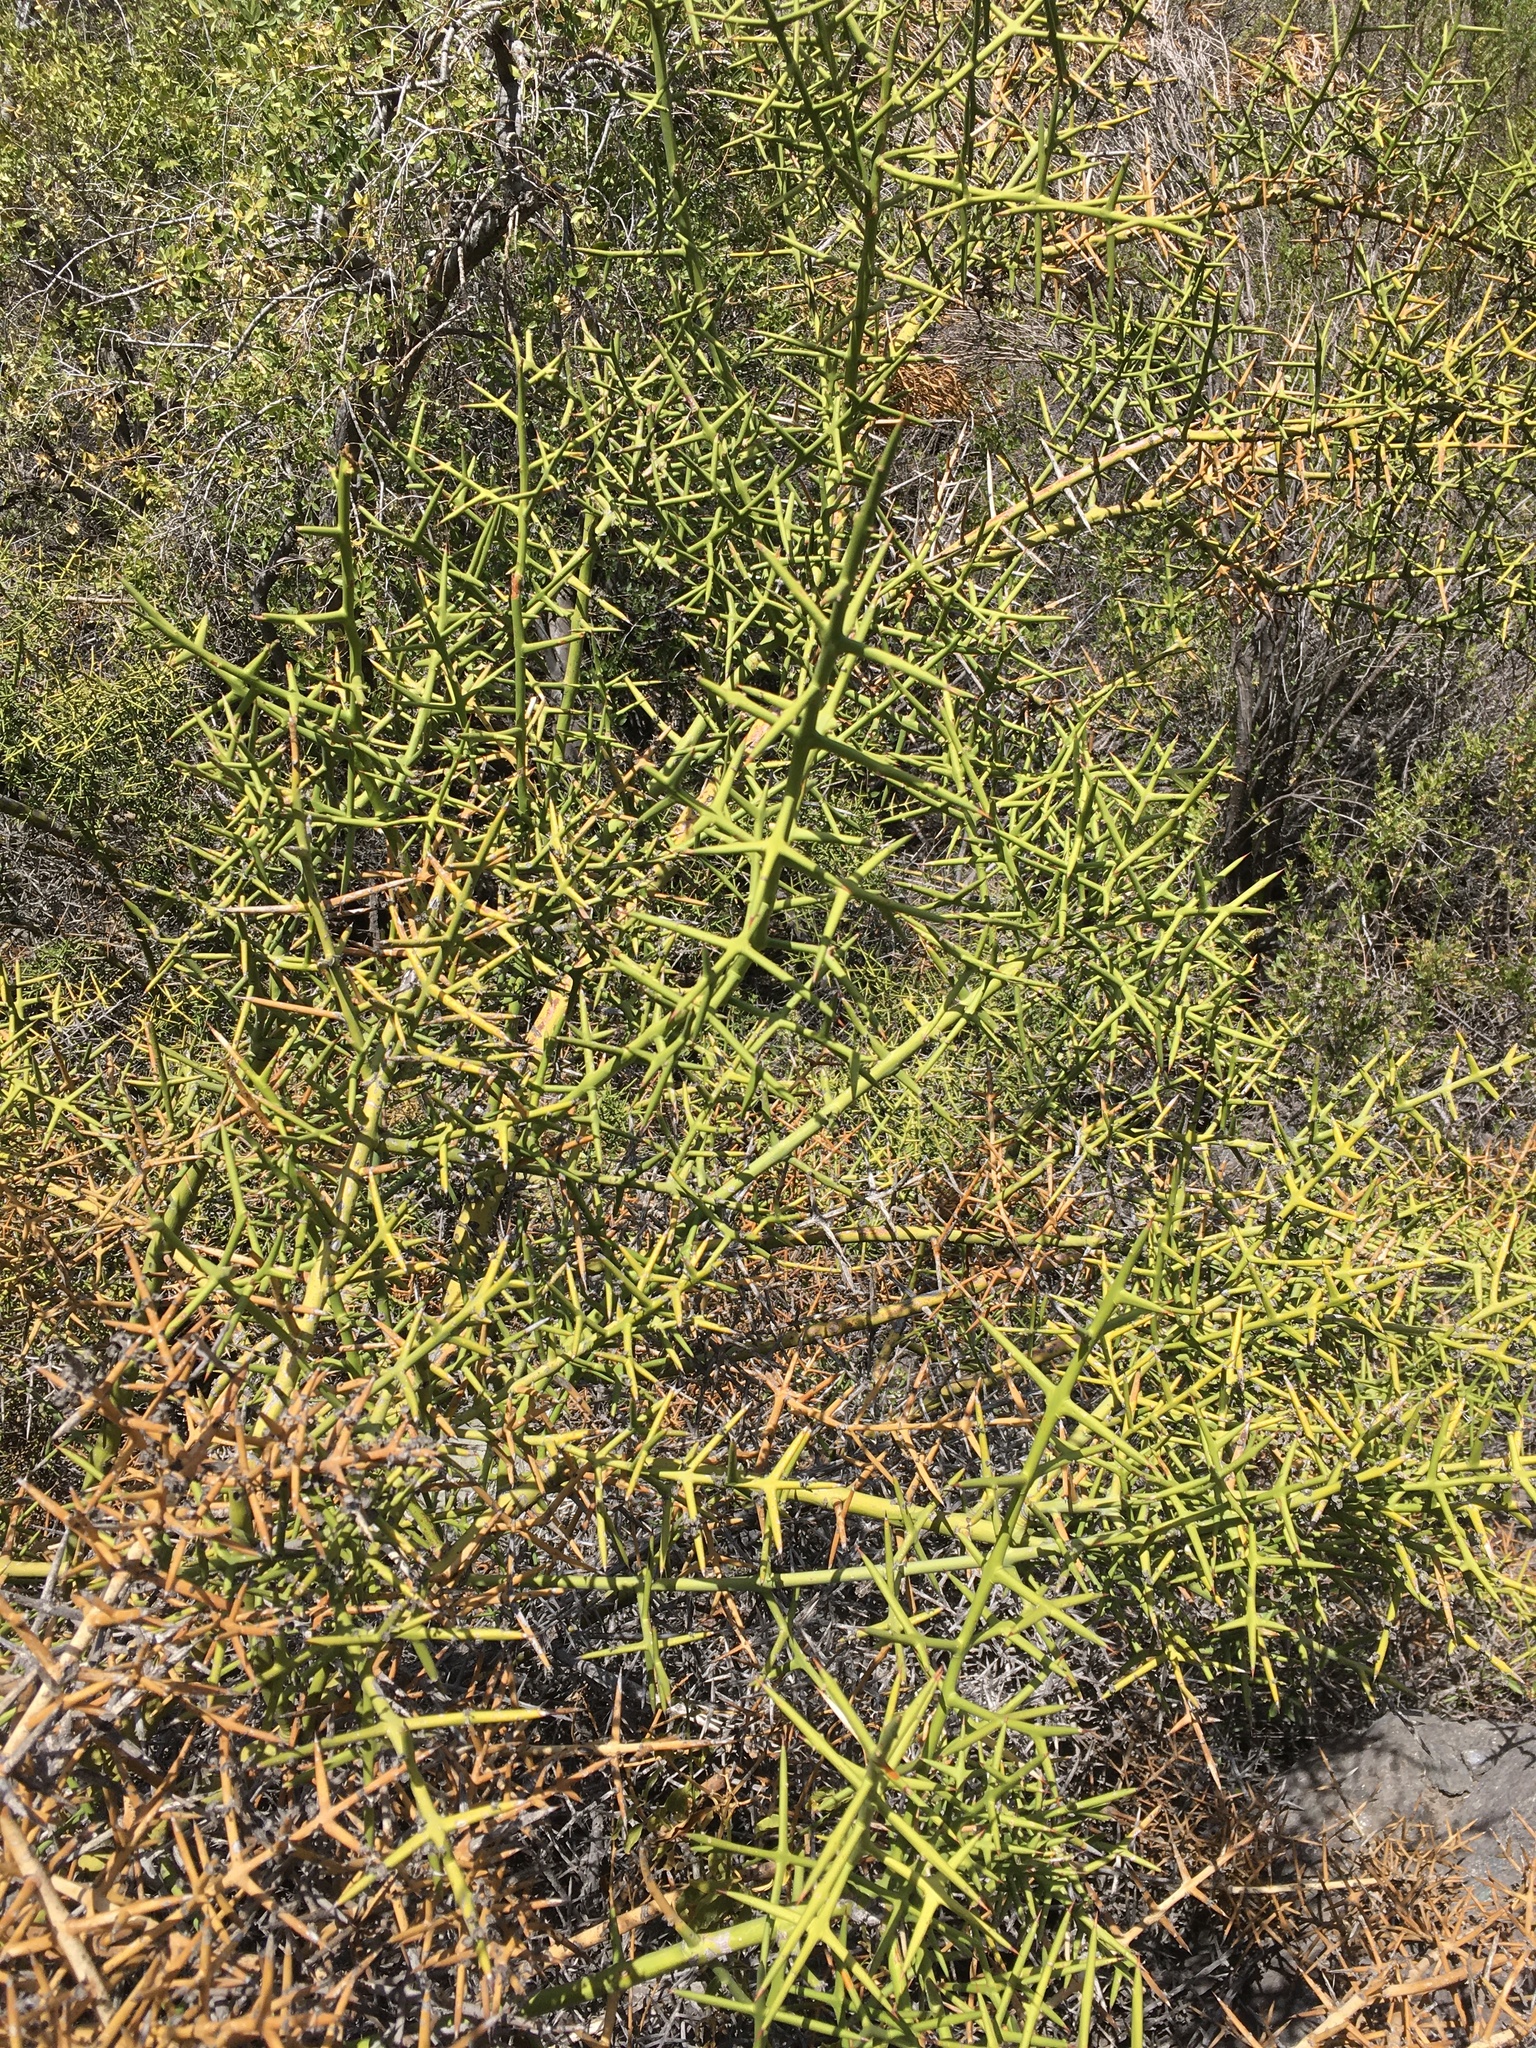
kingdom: Plantae
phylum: Tracheophyta
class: Magnoliopsida
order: Rosales
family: Rhamnaceae
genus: Colletia
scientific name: Colletia hystrix
